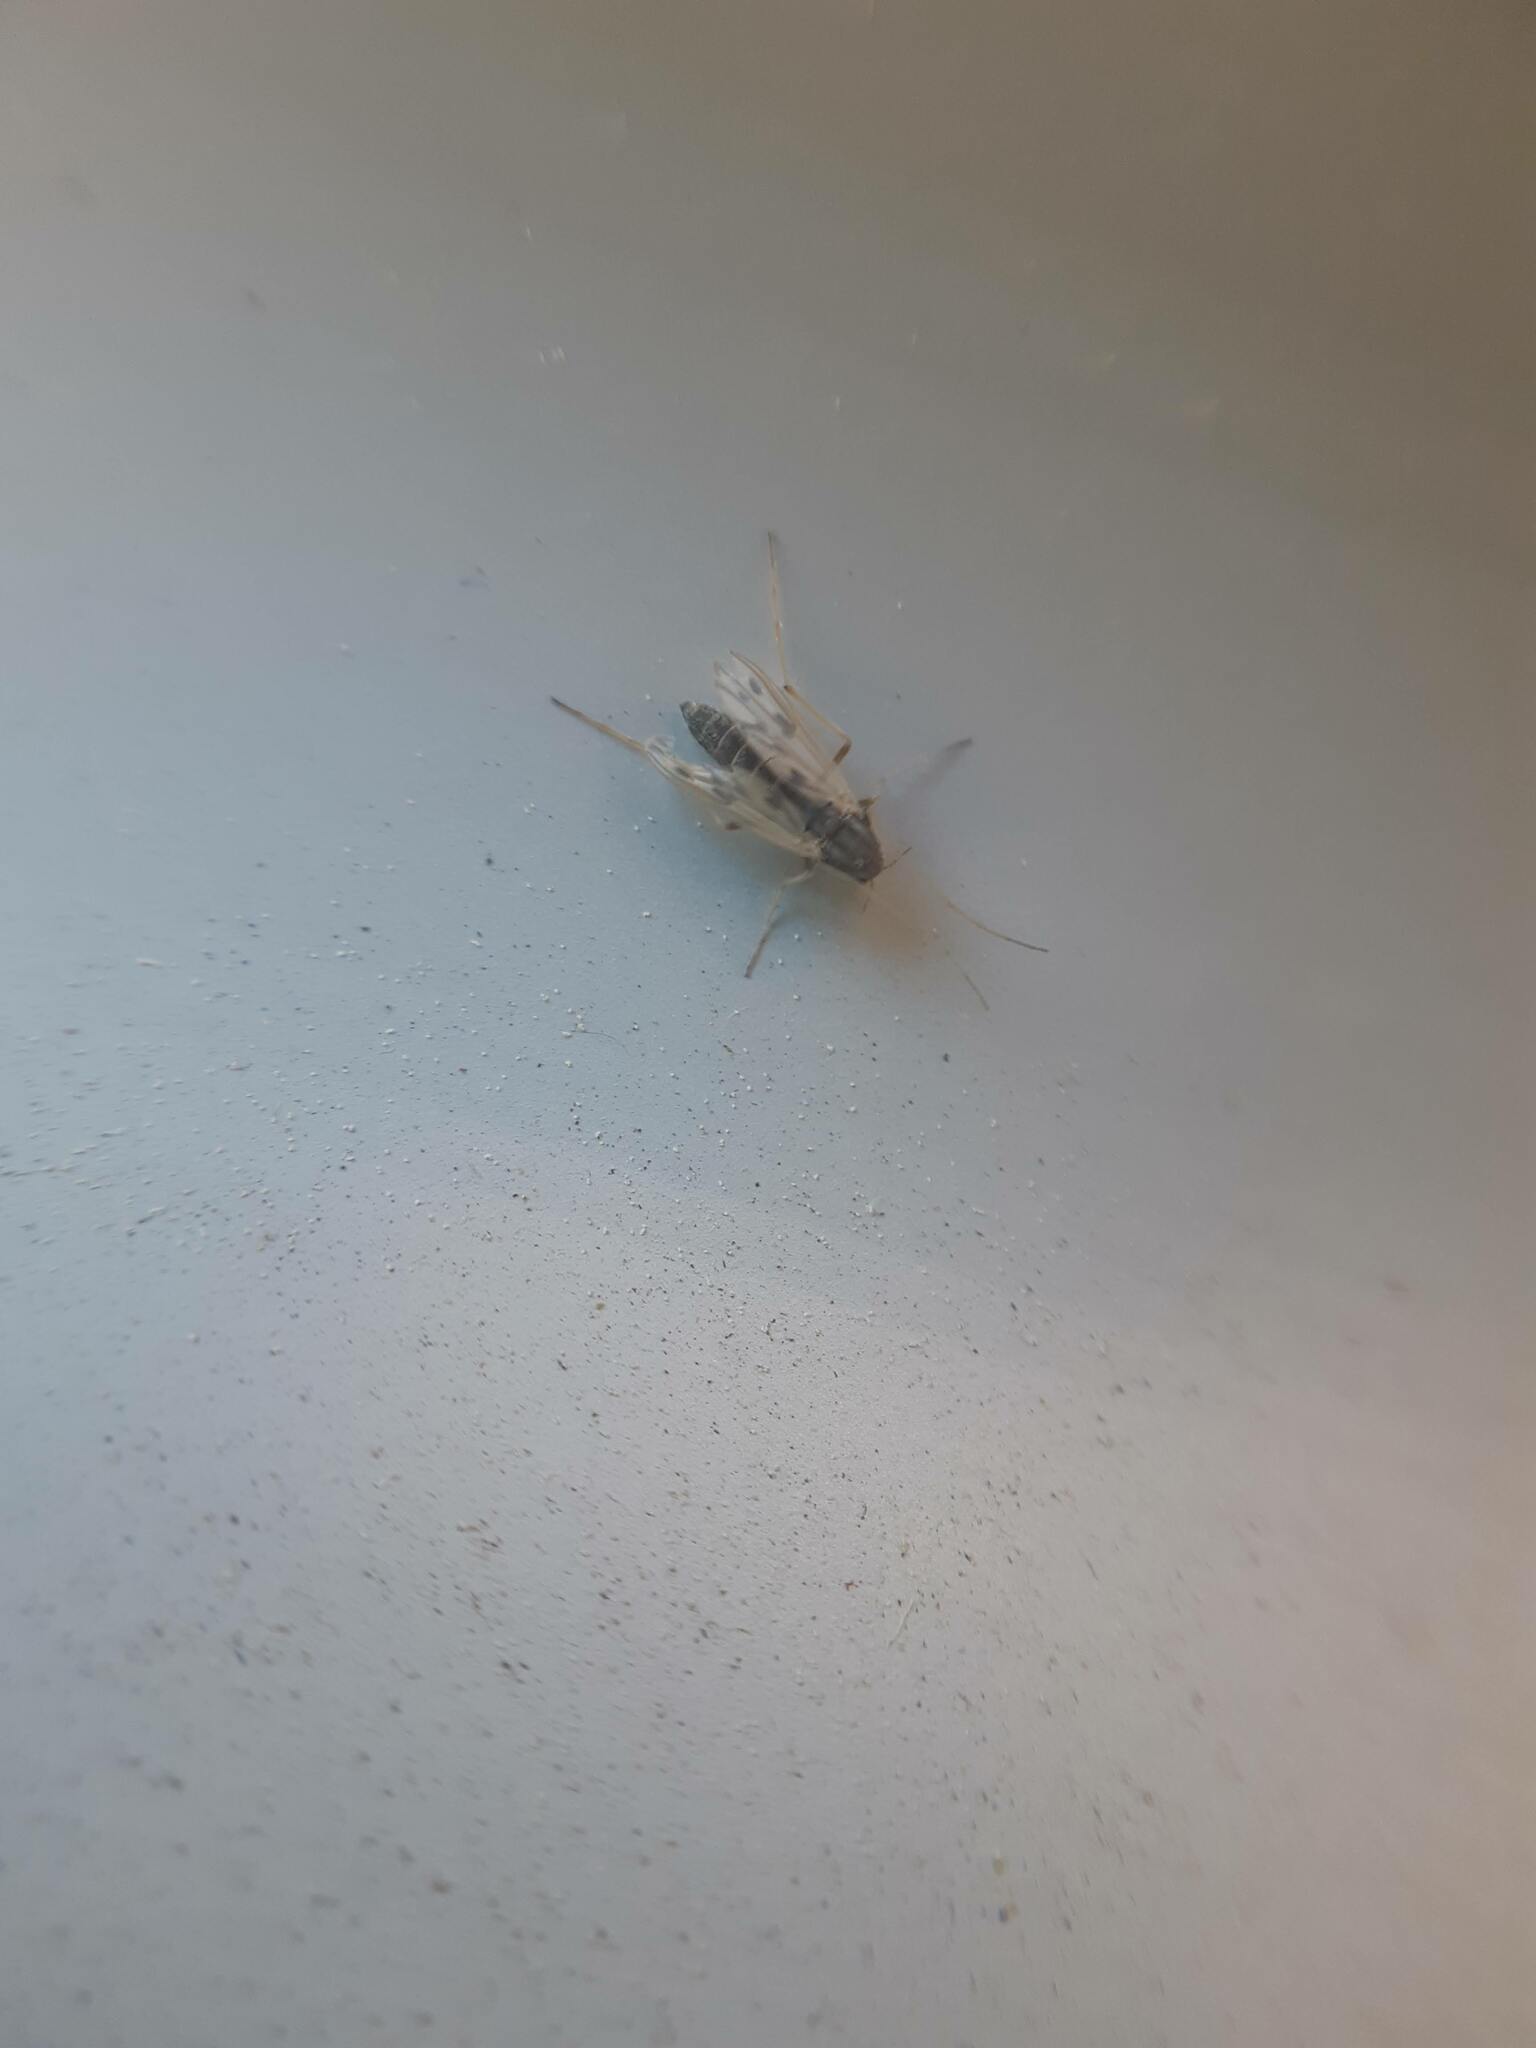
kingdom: Animalia
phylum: Arthropoda
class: Insecta
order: Diptera
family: Chironomidae
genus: Polypedilum
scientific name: Polypedilum nubifer
